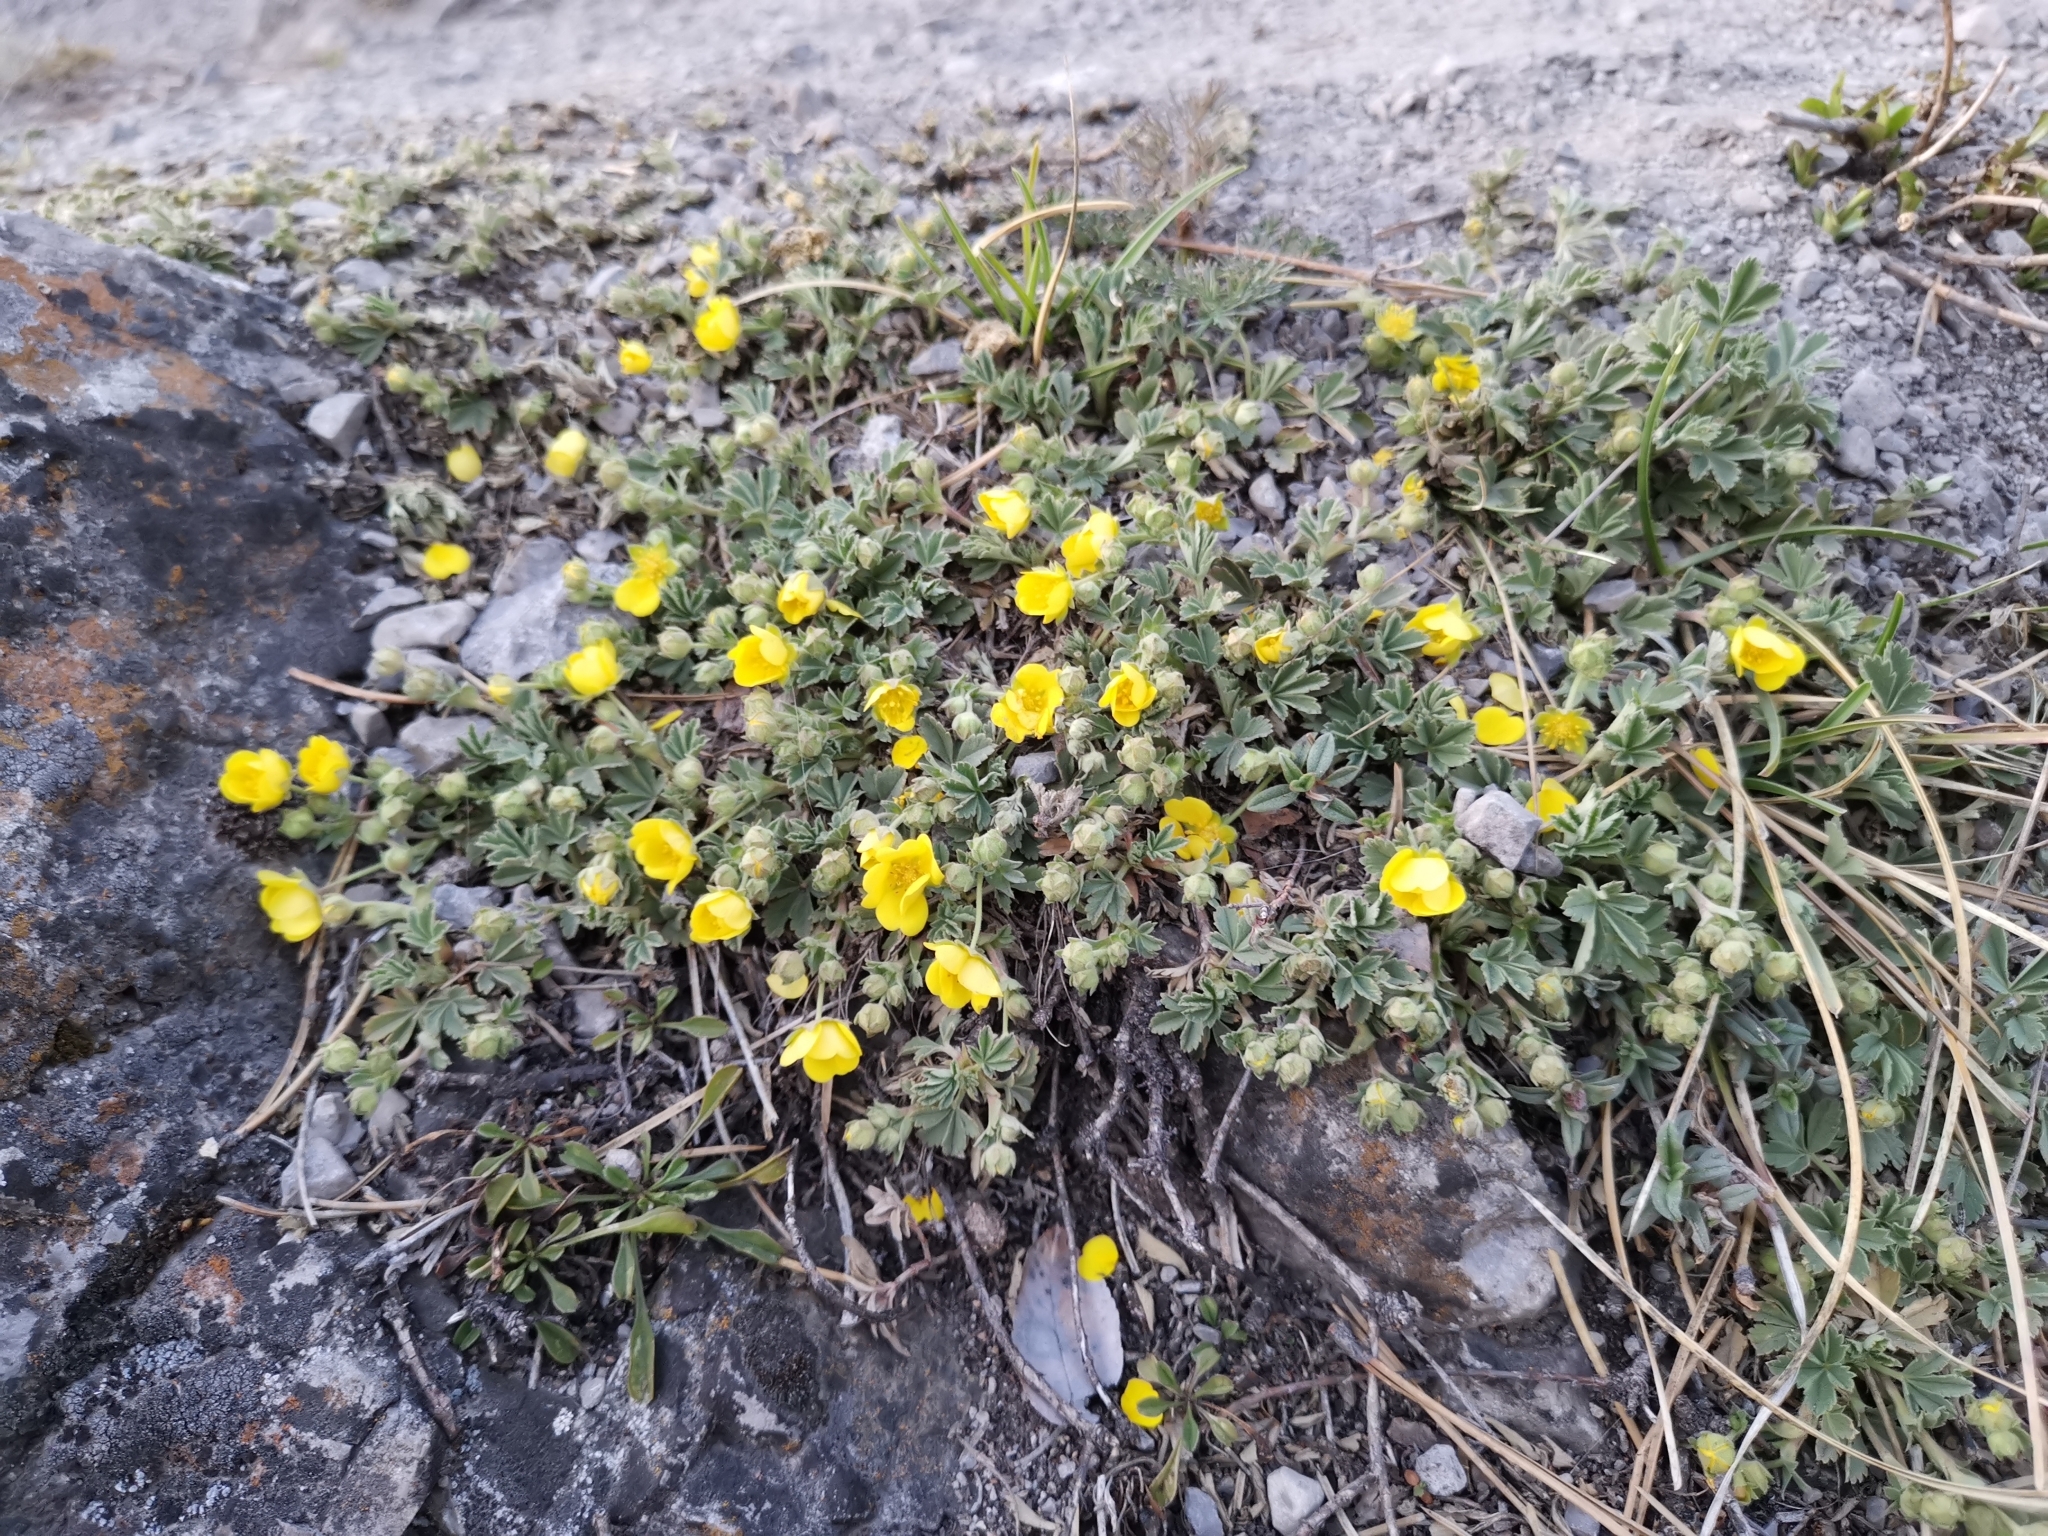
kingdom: Plantae
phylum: Tracheophyta
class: Magnoliopsida
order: Rosales
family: Rosaceae
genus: Potentilla
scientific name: Potentilla incana
